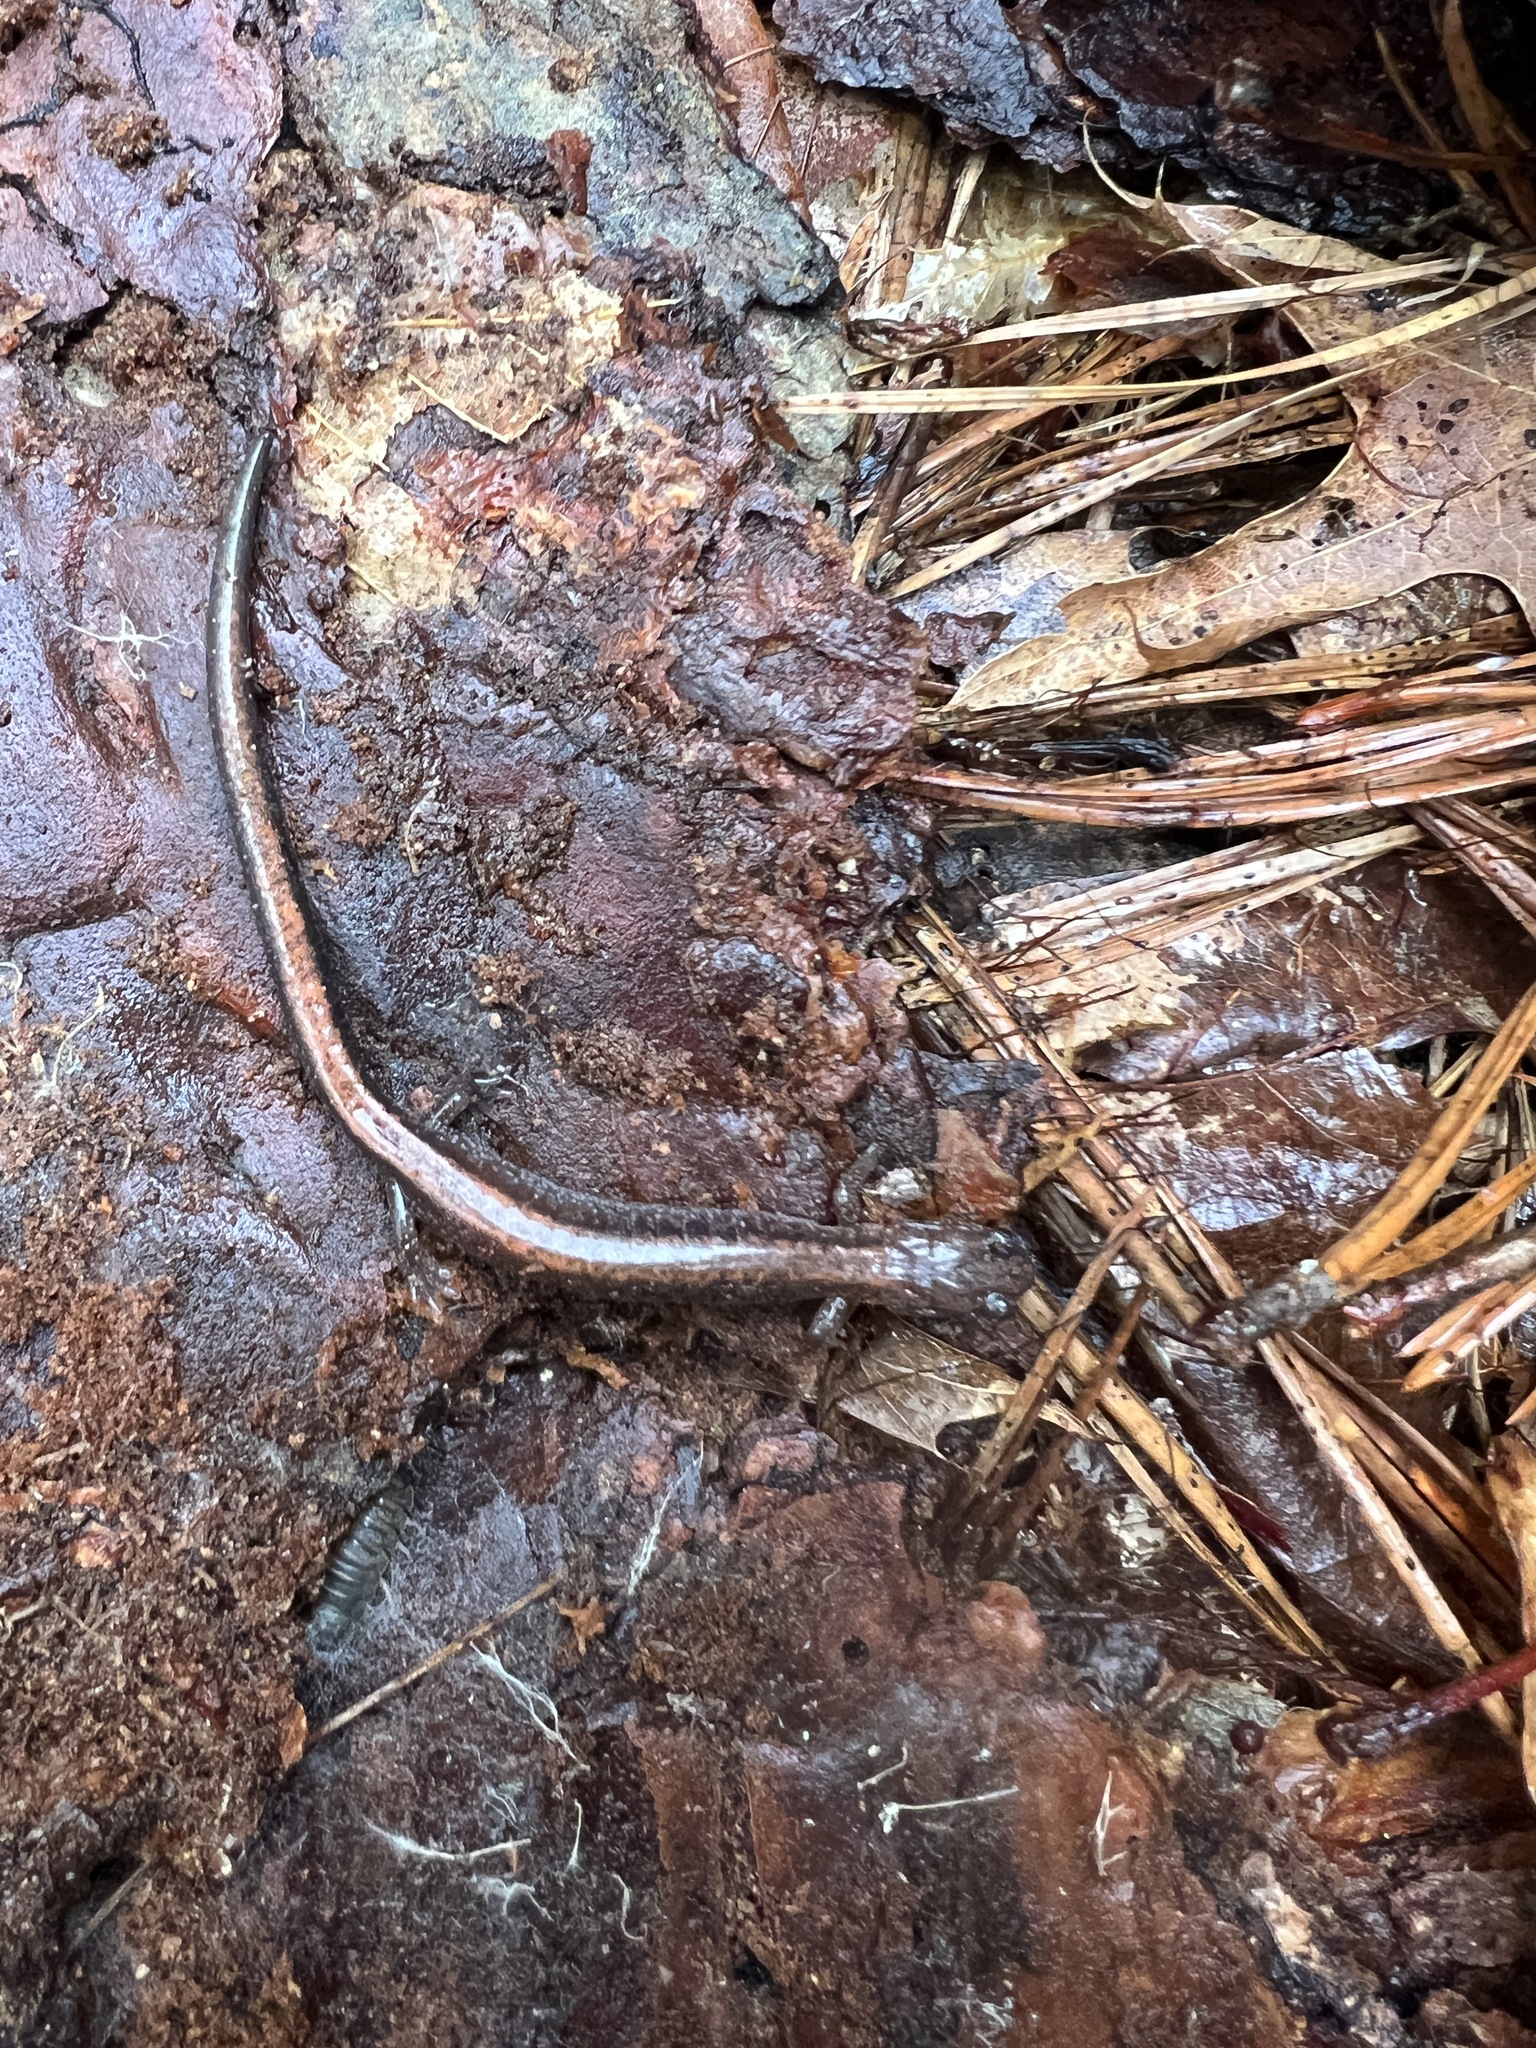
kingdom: Animalia
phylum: Chordata
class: Amphibia
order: Caudata
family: Plethodontidae
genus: Plethodon
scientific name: Plethodon cinereus
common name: Redback salamander
